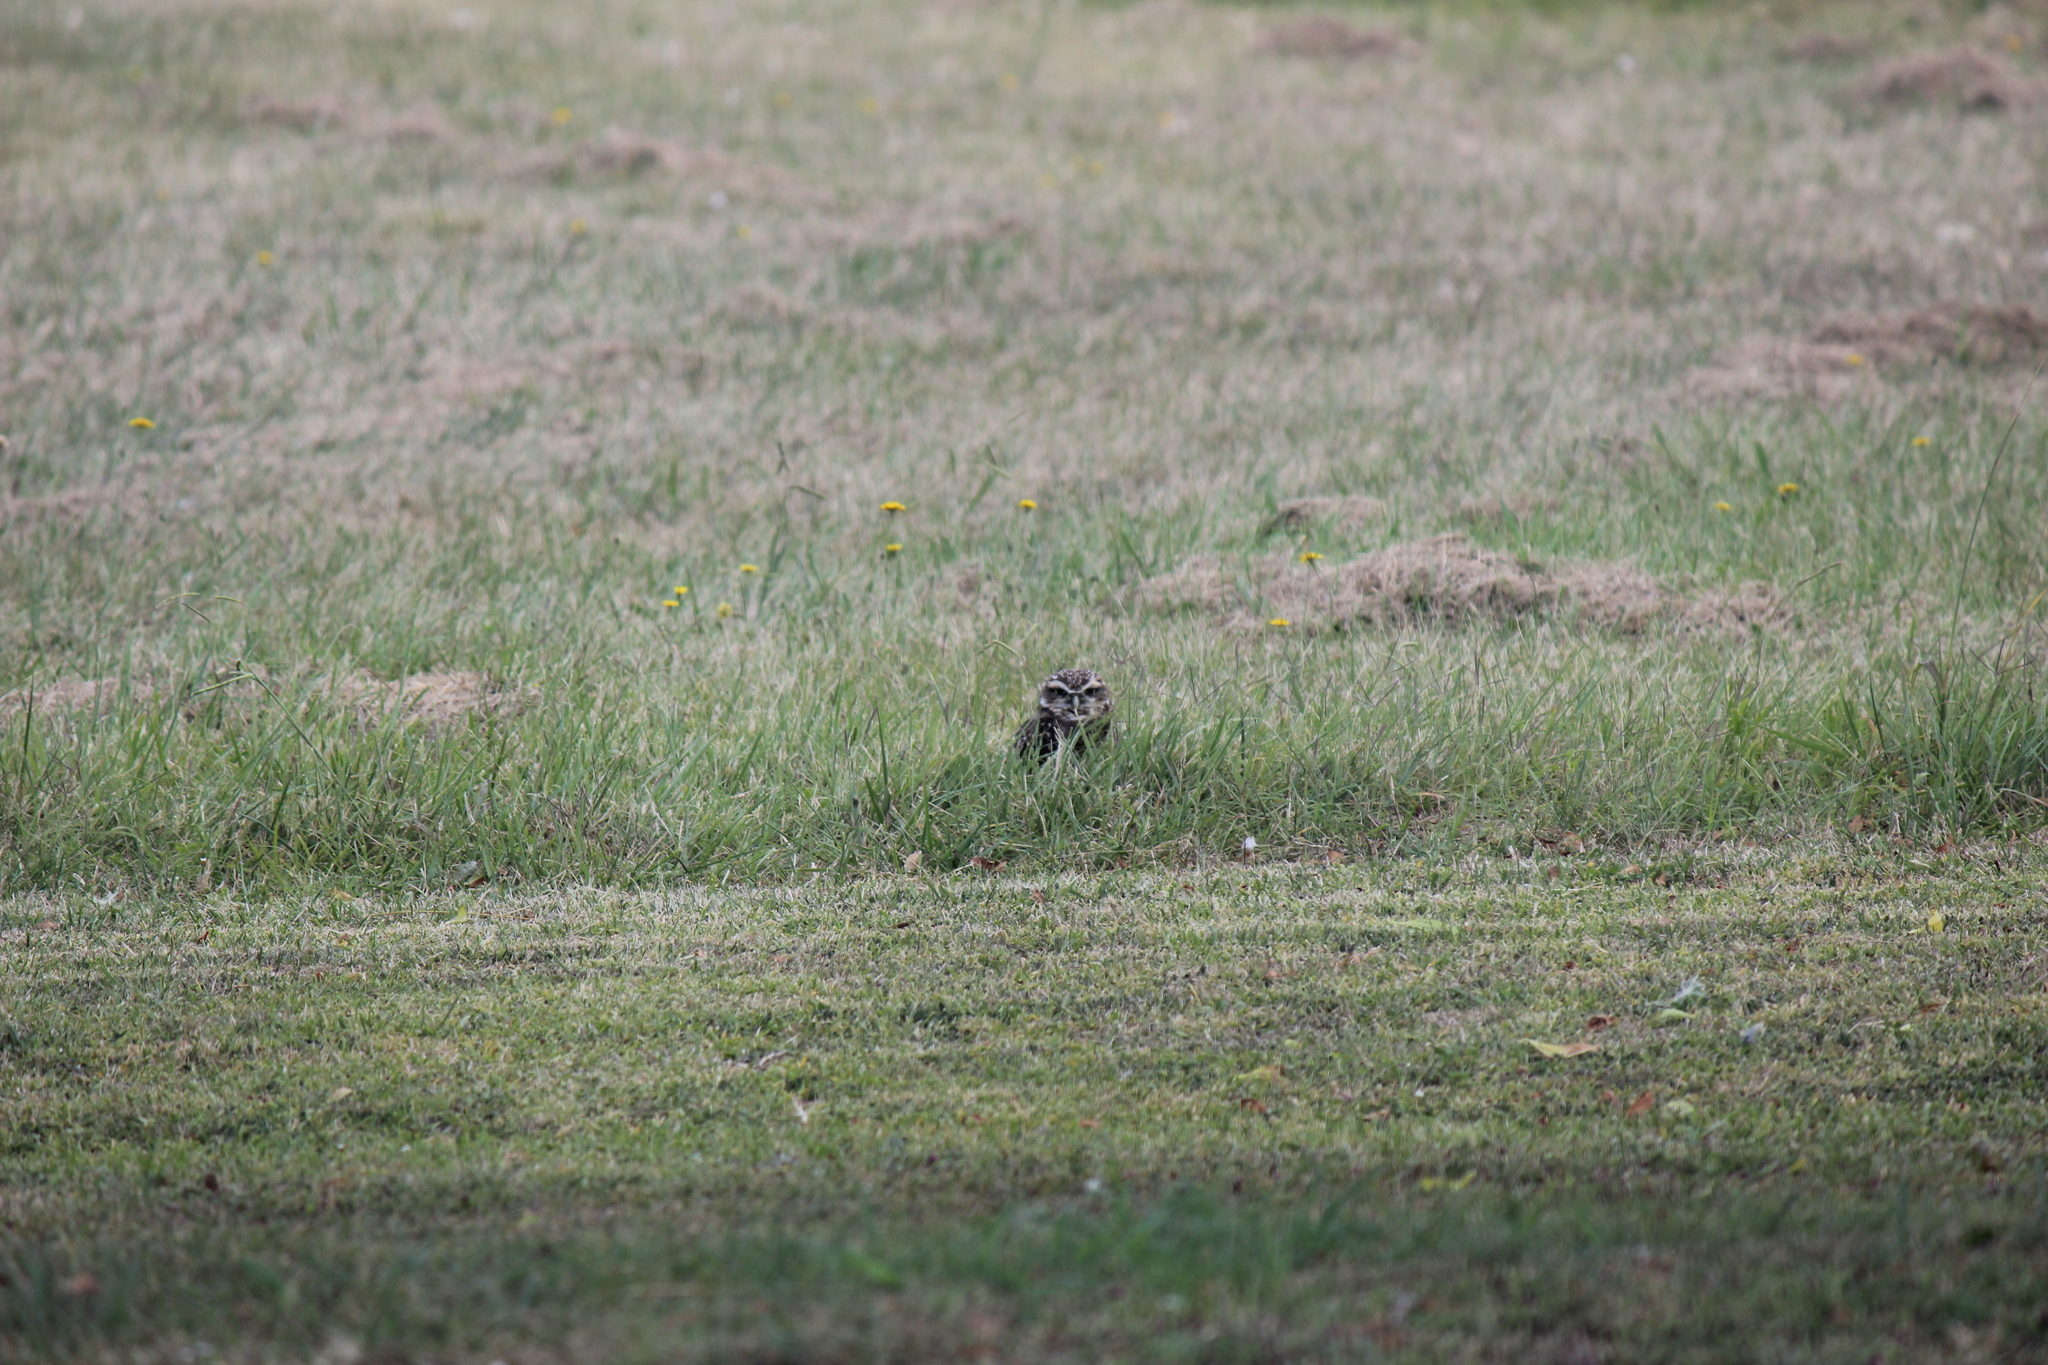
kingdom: Animalia
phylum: Chordata
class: Aves
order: Strigiformes
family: Strigidae
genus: Athene
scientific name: Athene cunicularia
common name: Burrowing owl
